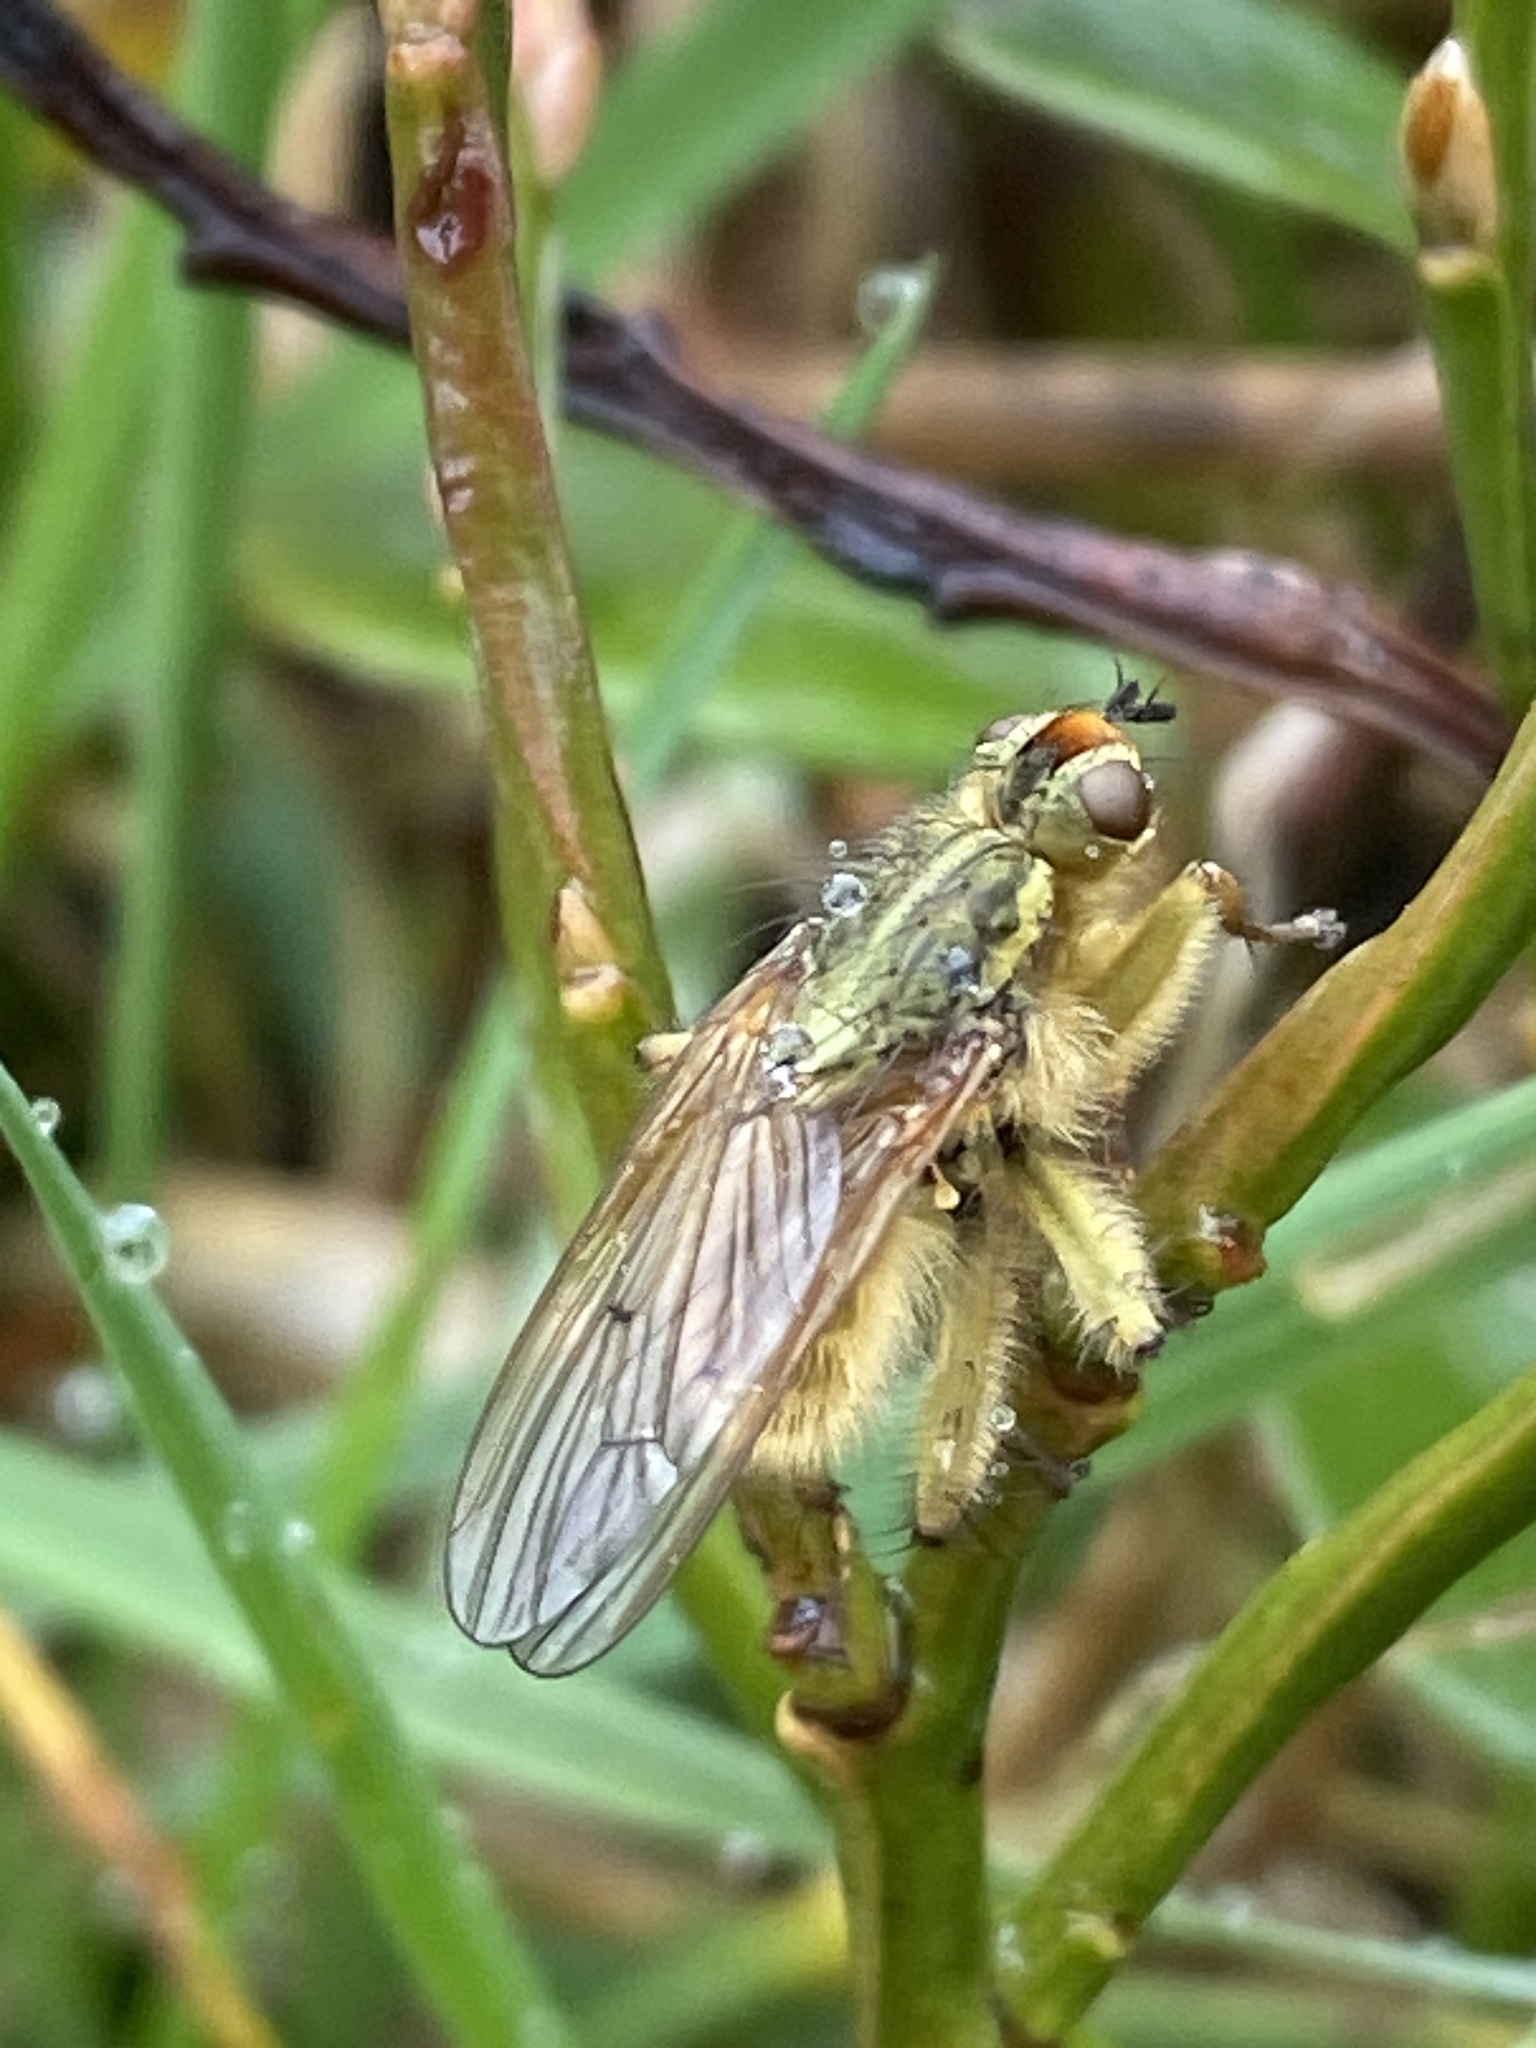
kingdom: Animalia
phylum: Arthropoda
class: Insecta
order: Diptera
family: Scathophagidae
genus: Scathophaga
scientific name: Scathophaga stercoraria
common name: Yellow dung fly
